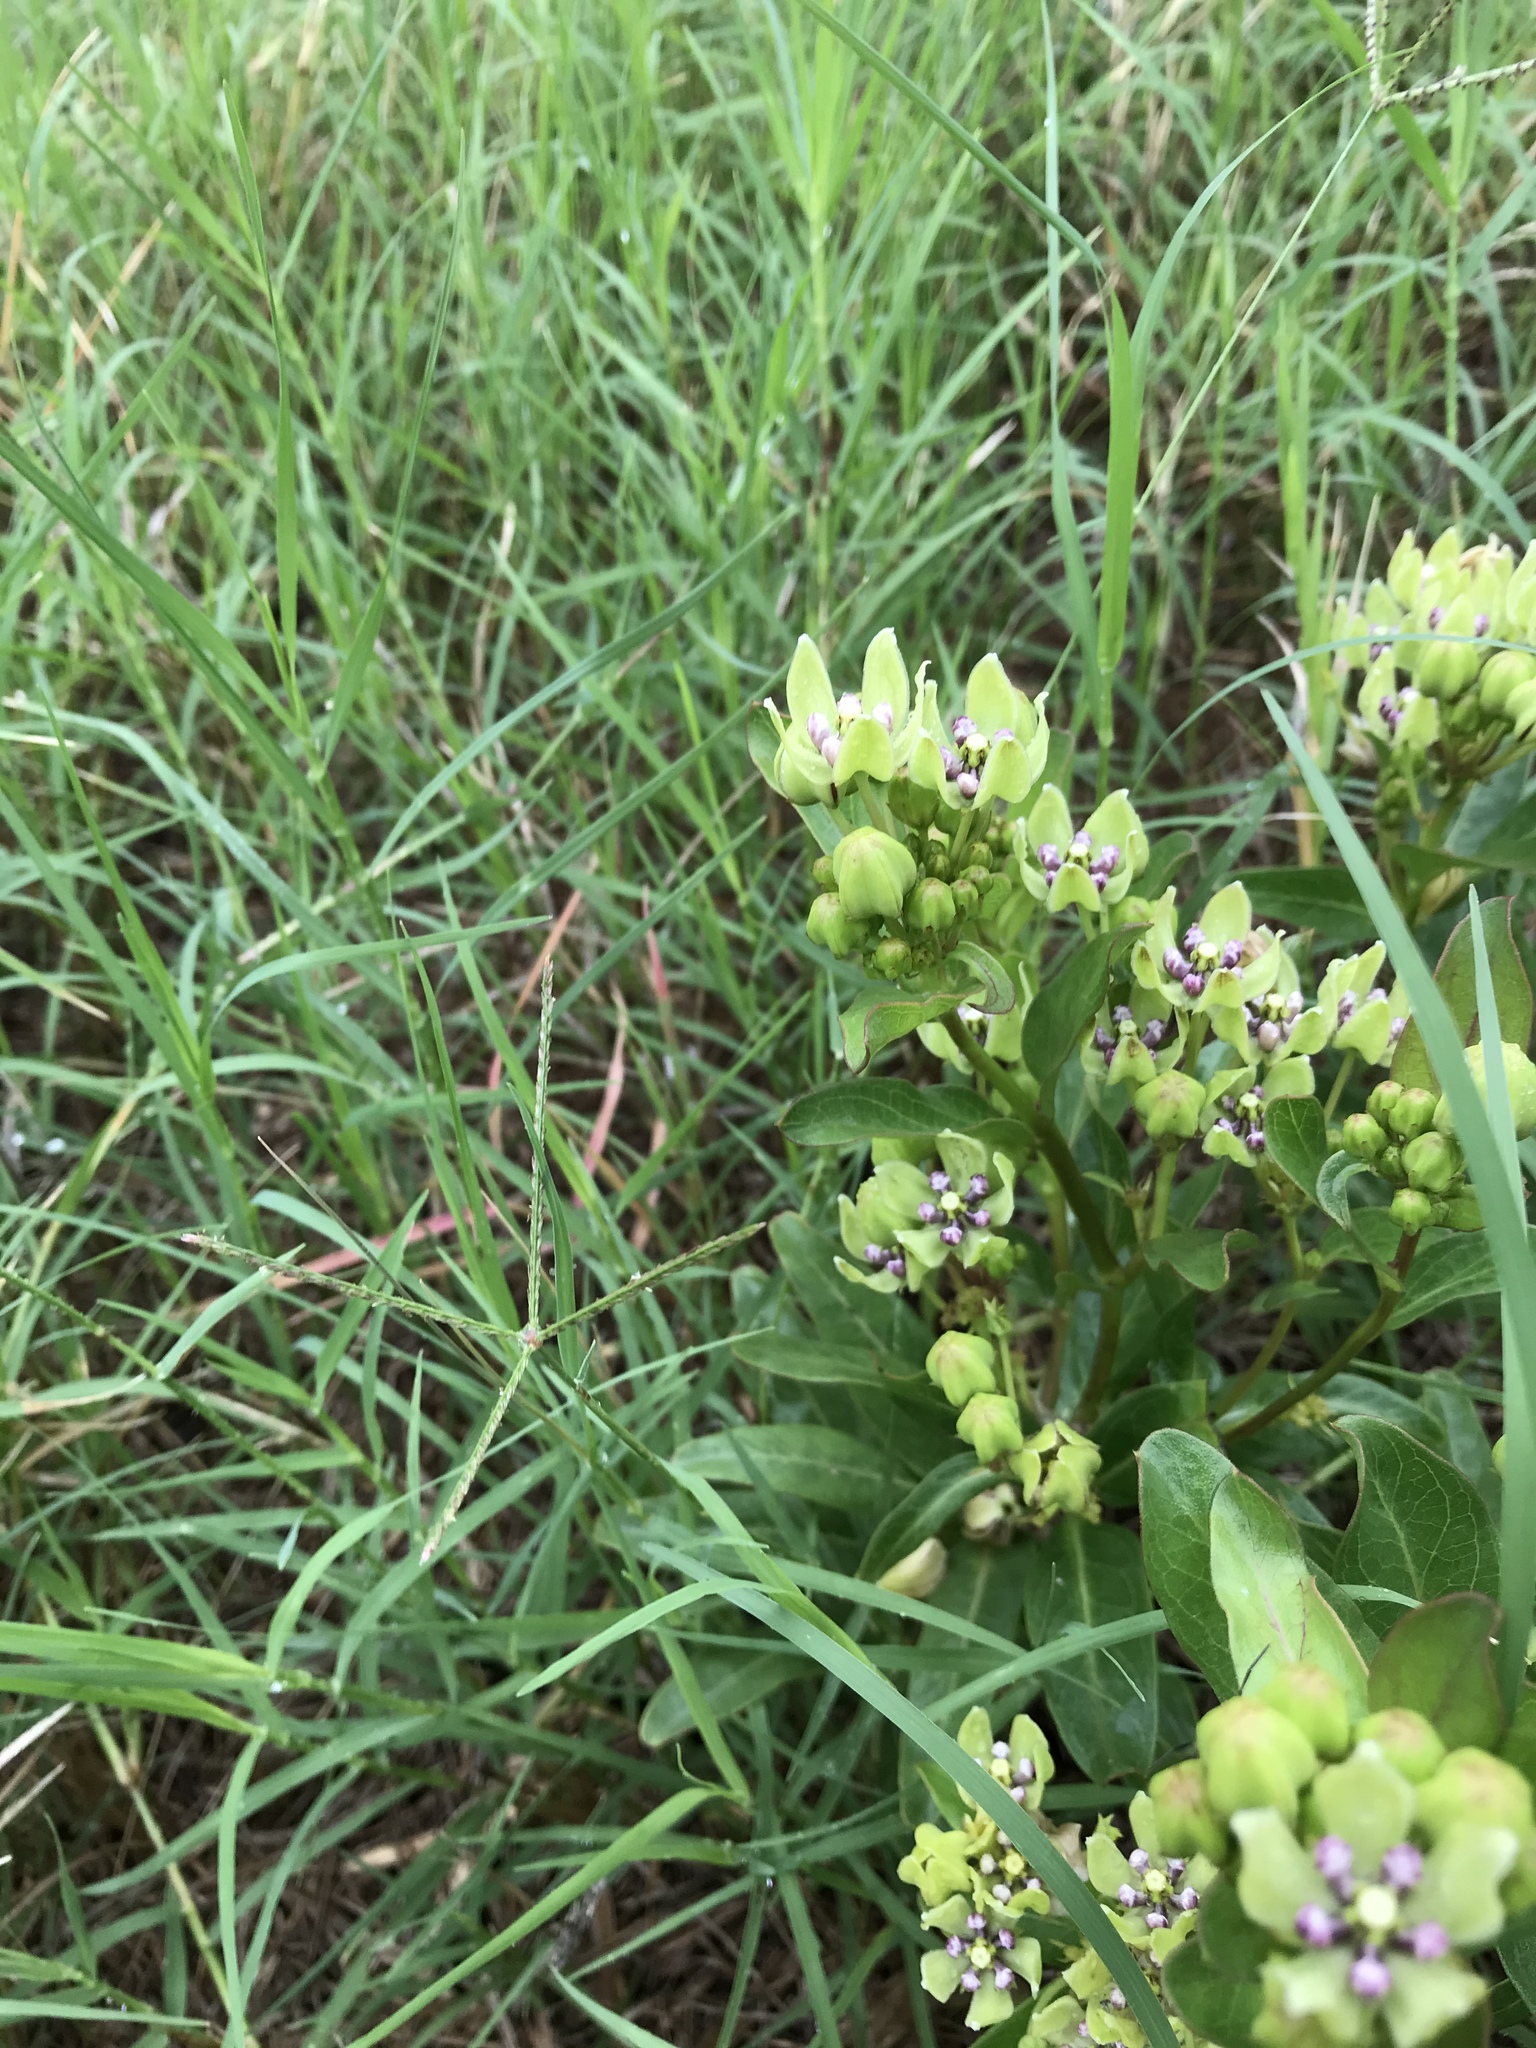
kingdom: Plantae
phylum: Tracheophyta
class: Magnoliopsida
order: Gentianales
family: Apocynaceae
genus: Asclepias
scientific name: Asclepias viridis
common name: Antelope-horns
